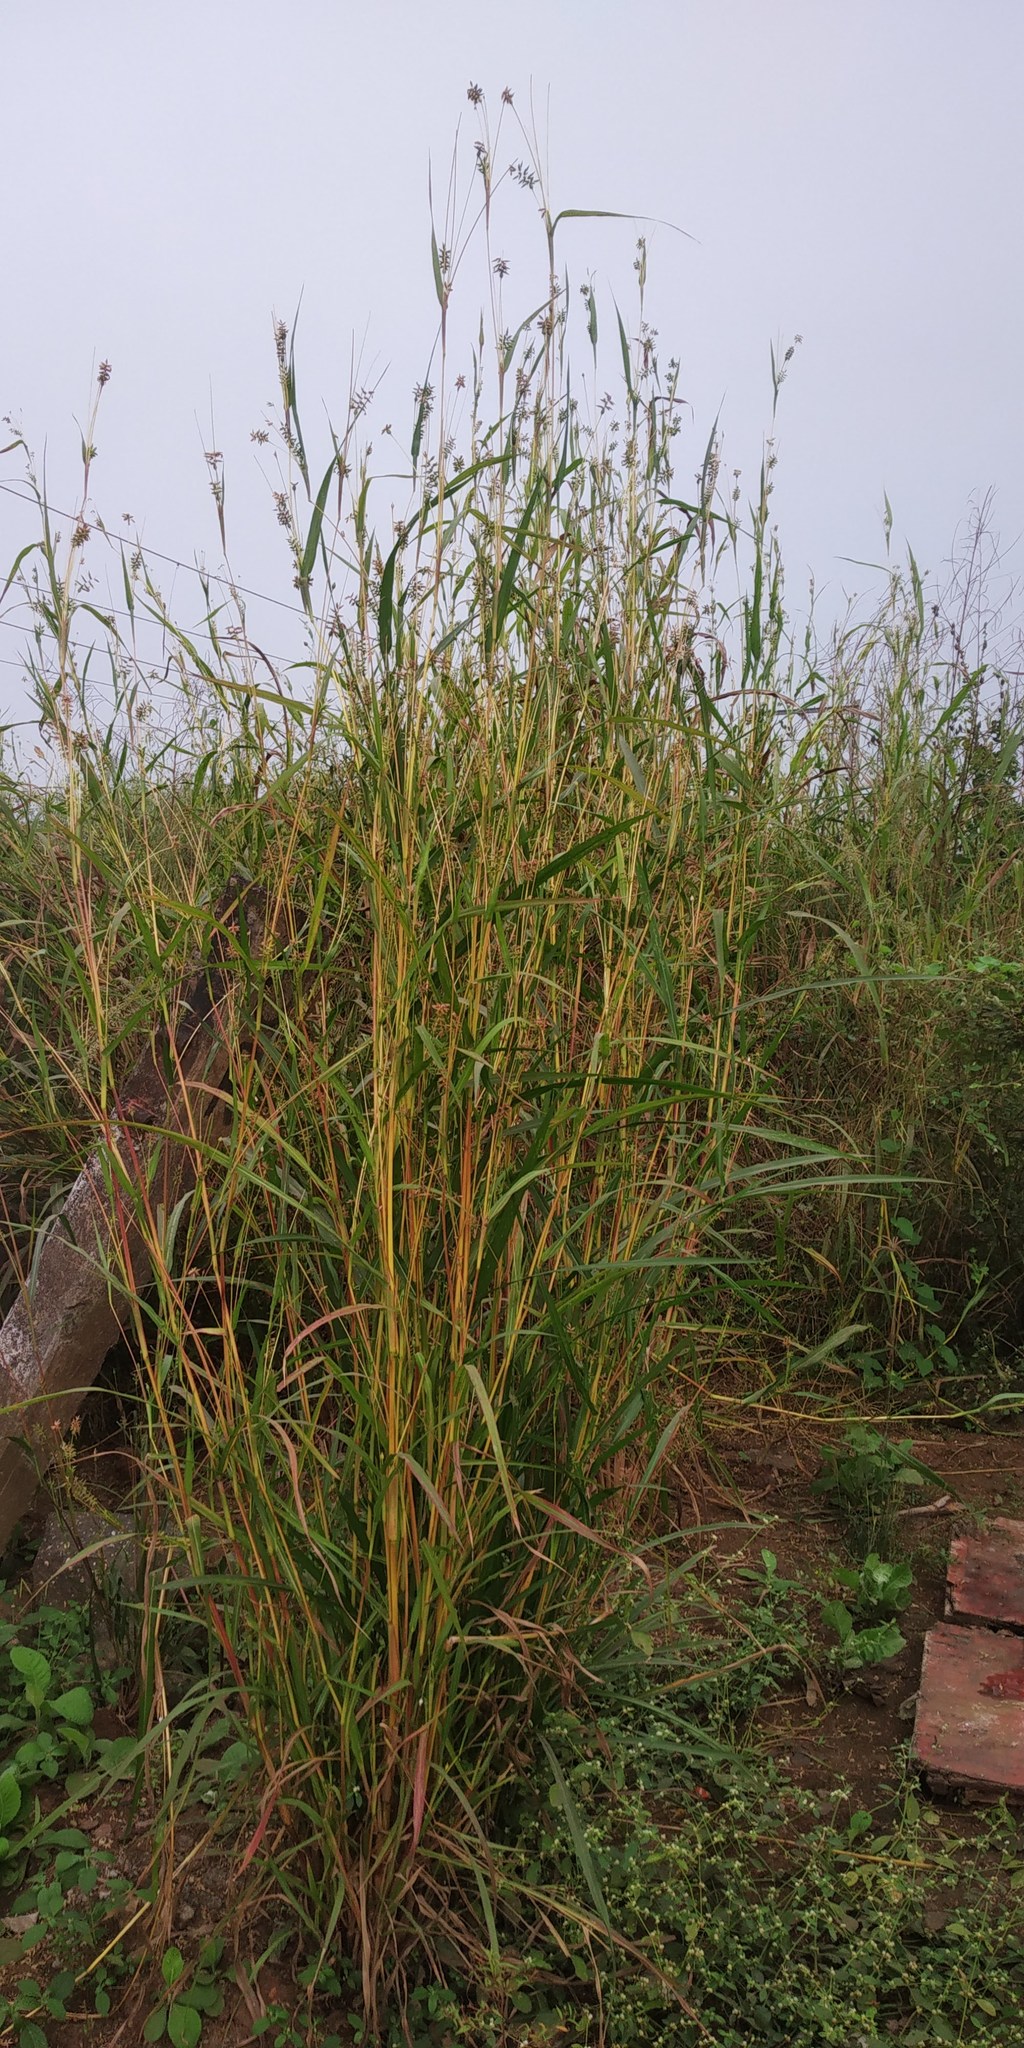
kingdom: Plantae
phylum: Tracheophyta
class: Liliopsida
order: Poales
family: Poaceae
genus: Coix
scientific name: Coix lacryma-jobi
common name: Job's tears
